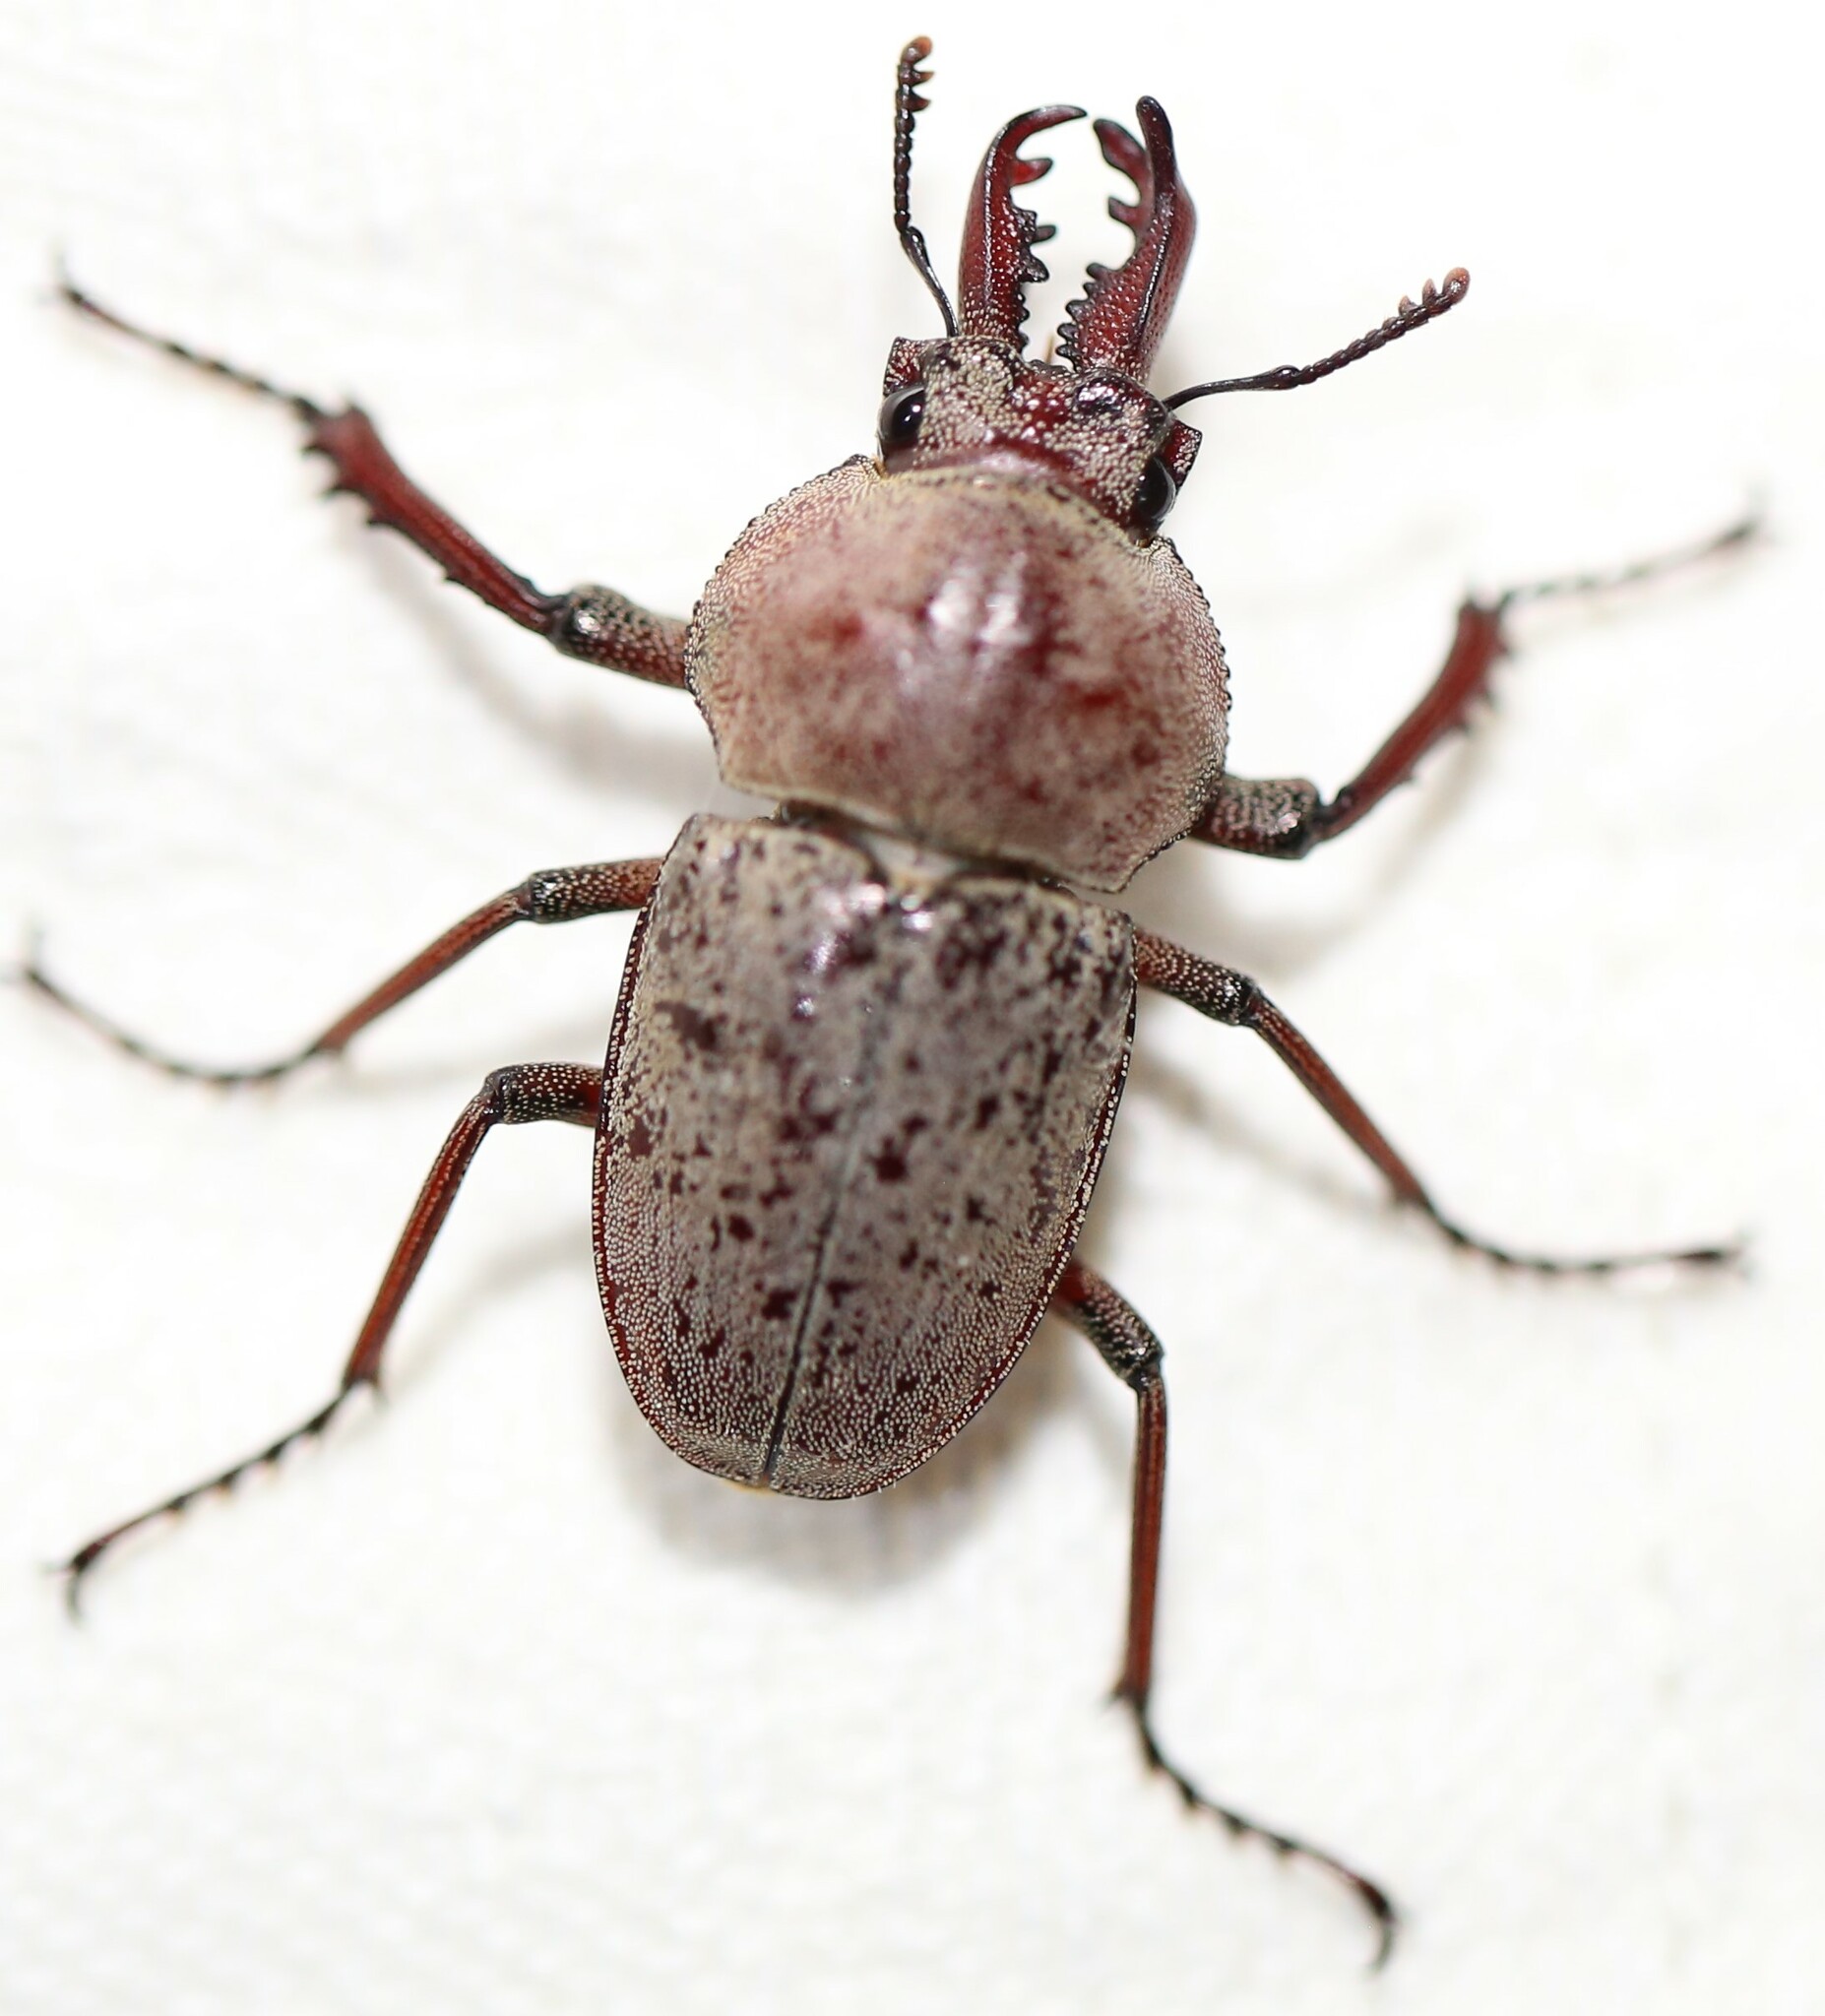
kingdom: Animalia
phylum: Arthropoda
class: Insecta
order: Coleoptera
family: Lucanidae
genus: Cacostomus
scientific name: Cacostomus squamosus
